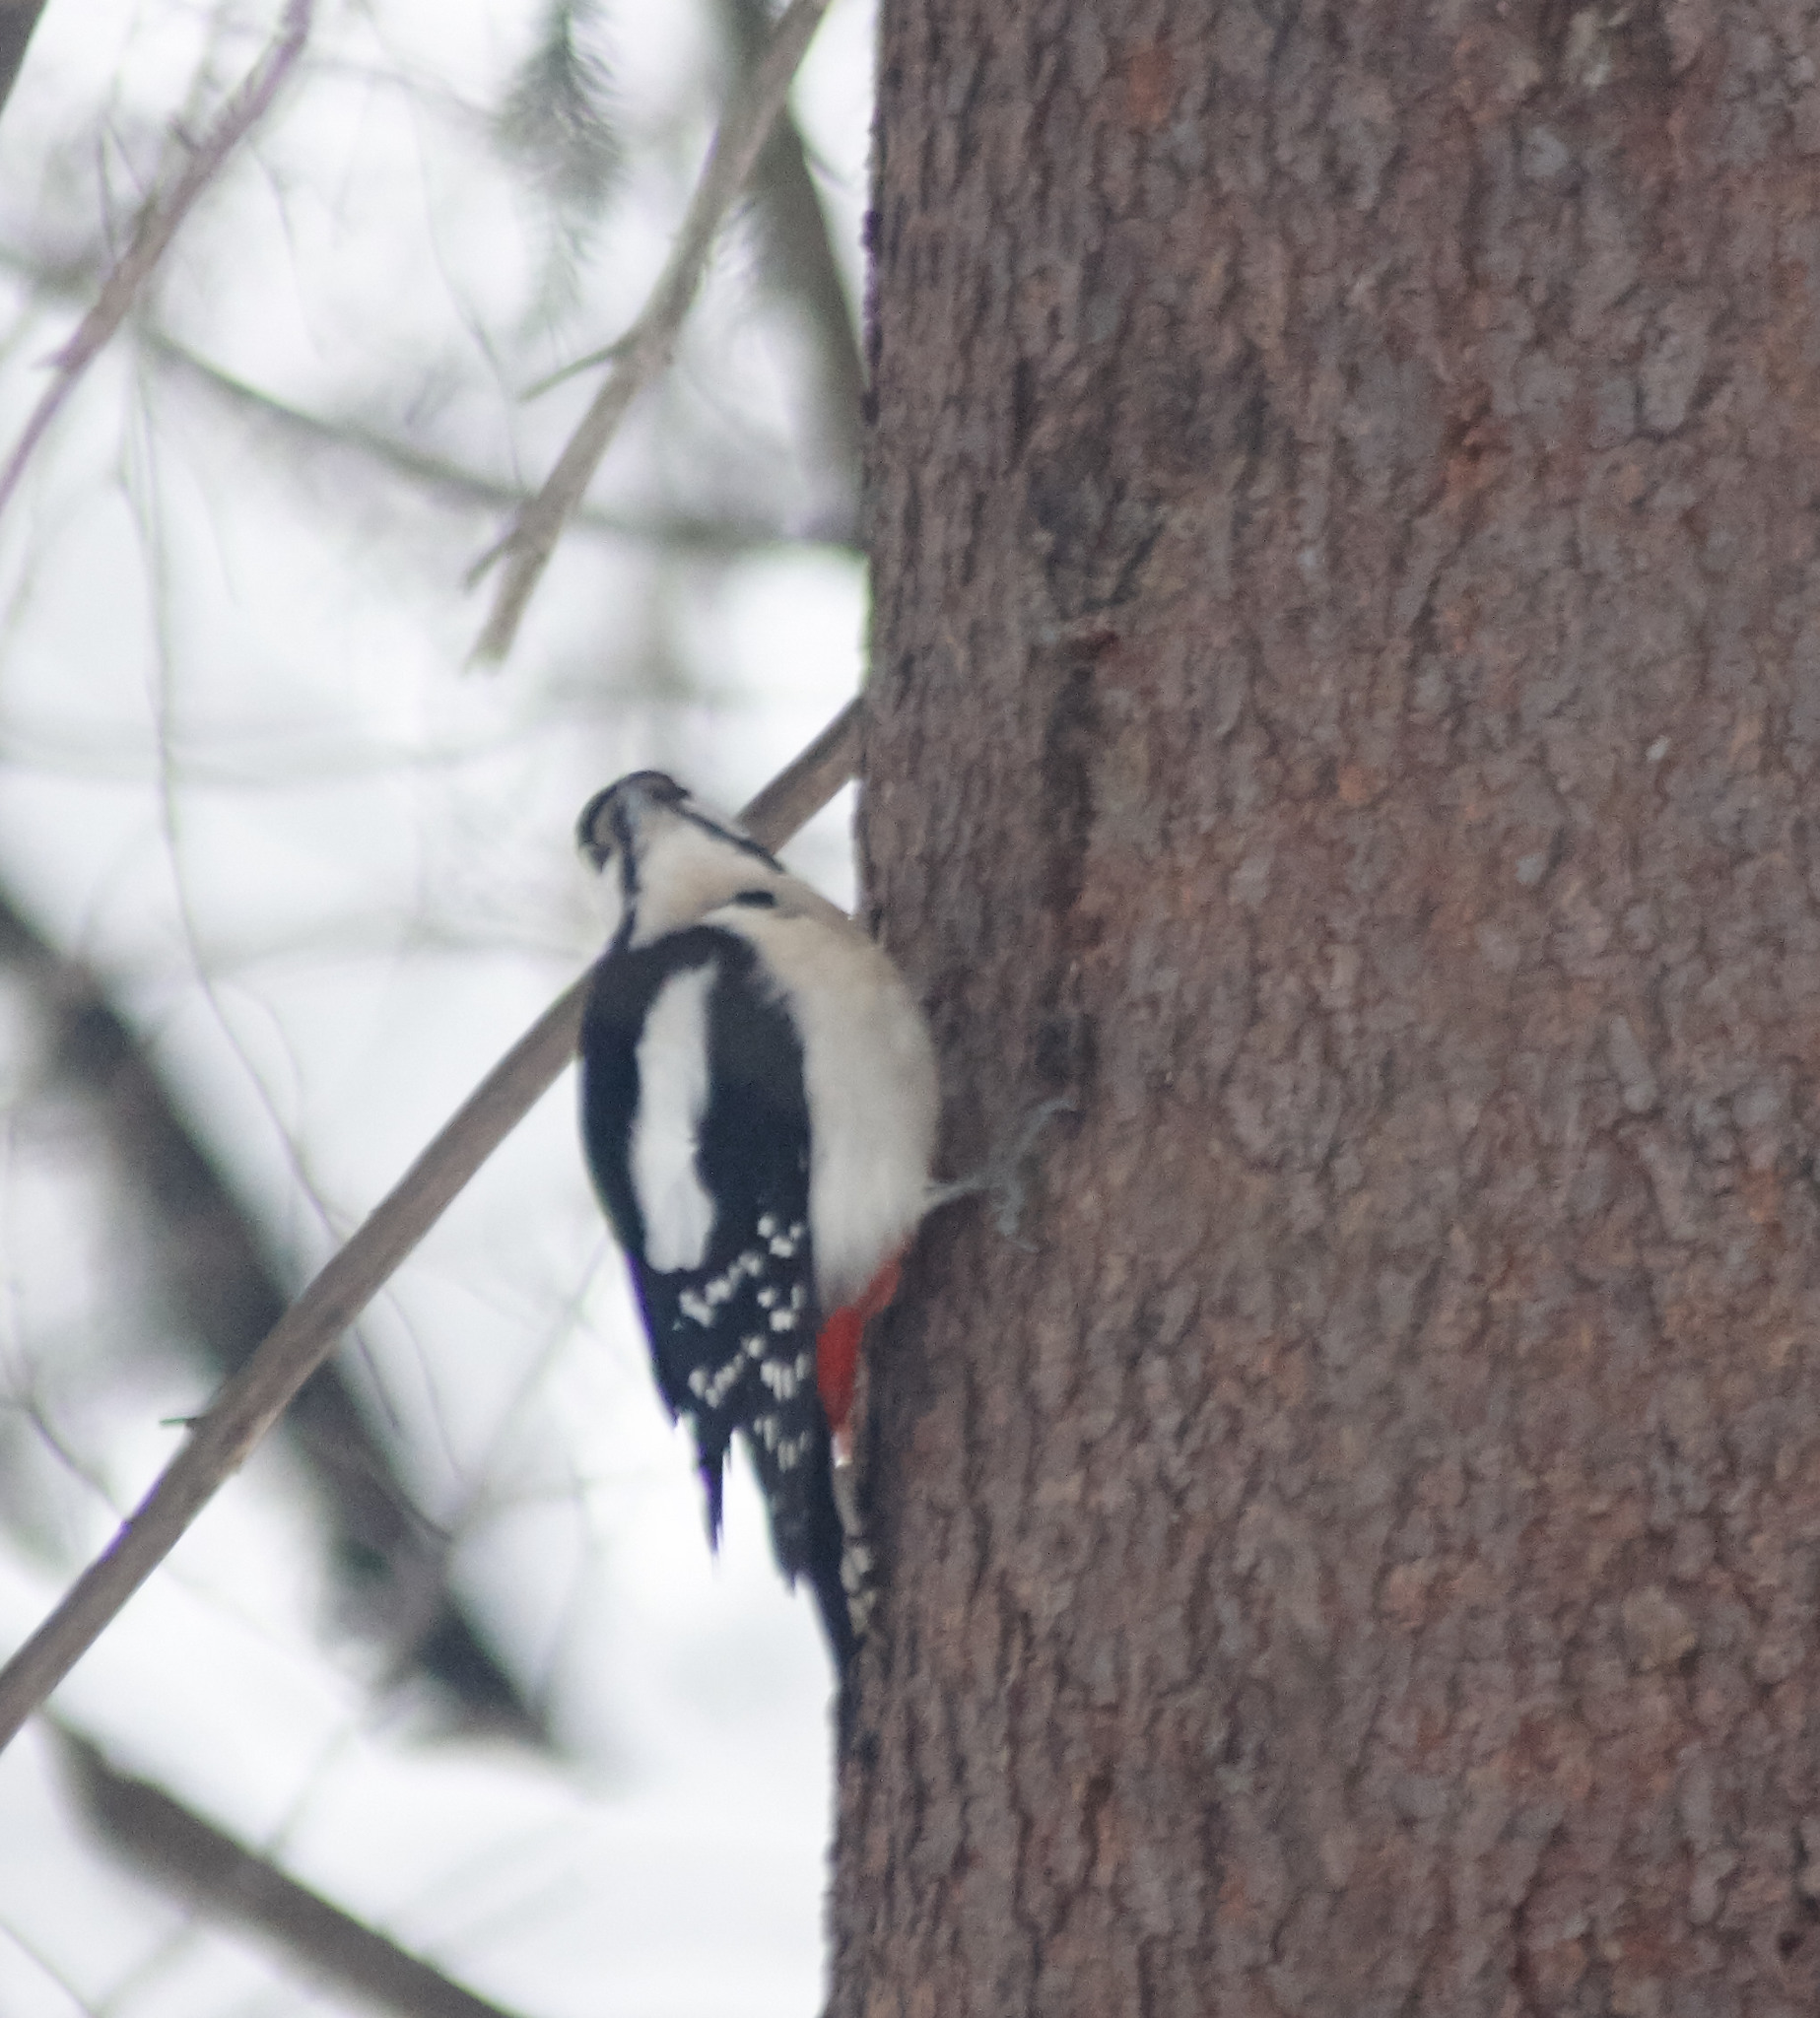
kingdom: Animalia
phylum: Chordata
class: Aves
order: Piciformes
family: Picidae
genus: Dendrocopos
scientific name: Dendrocopos major
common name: Great spotted woodpecker
